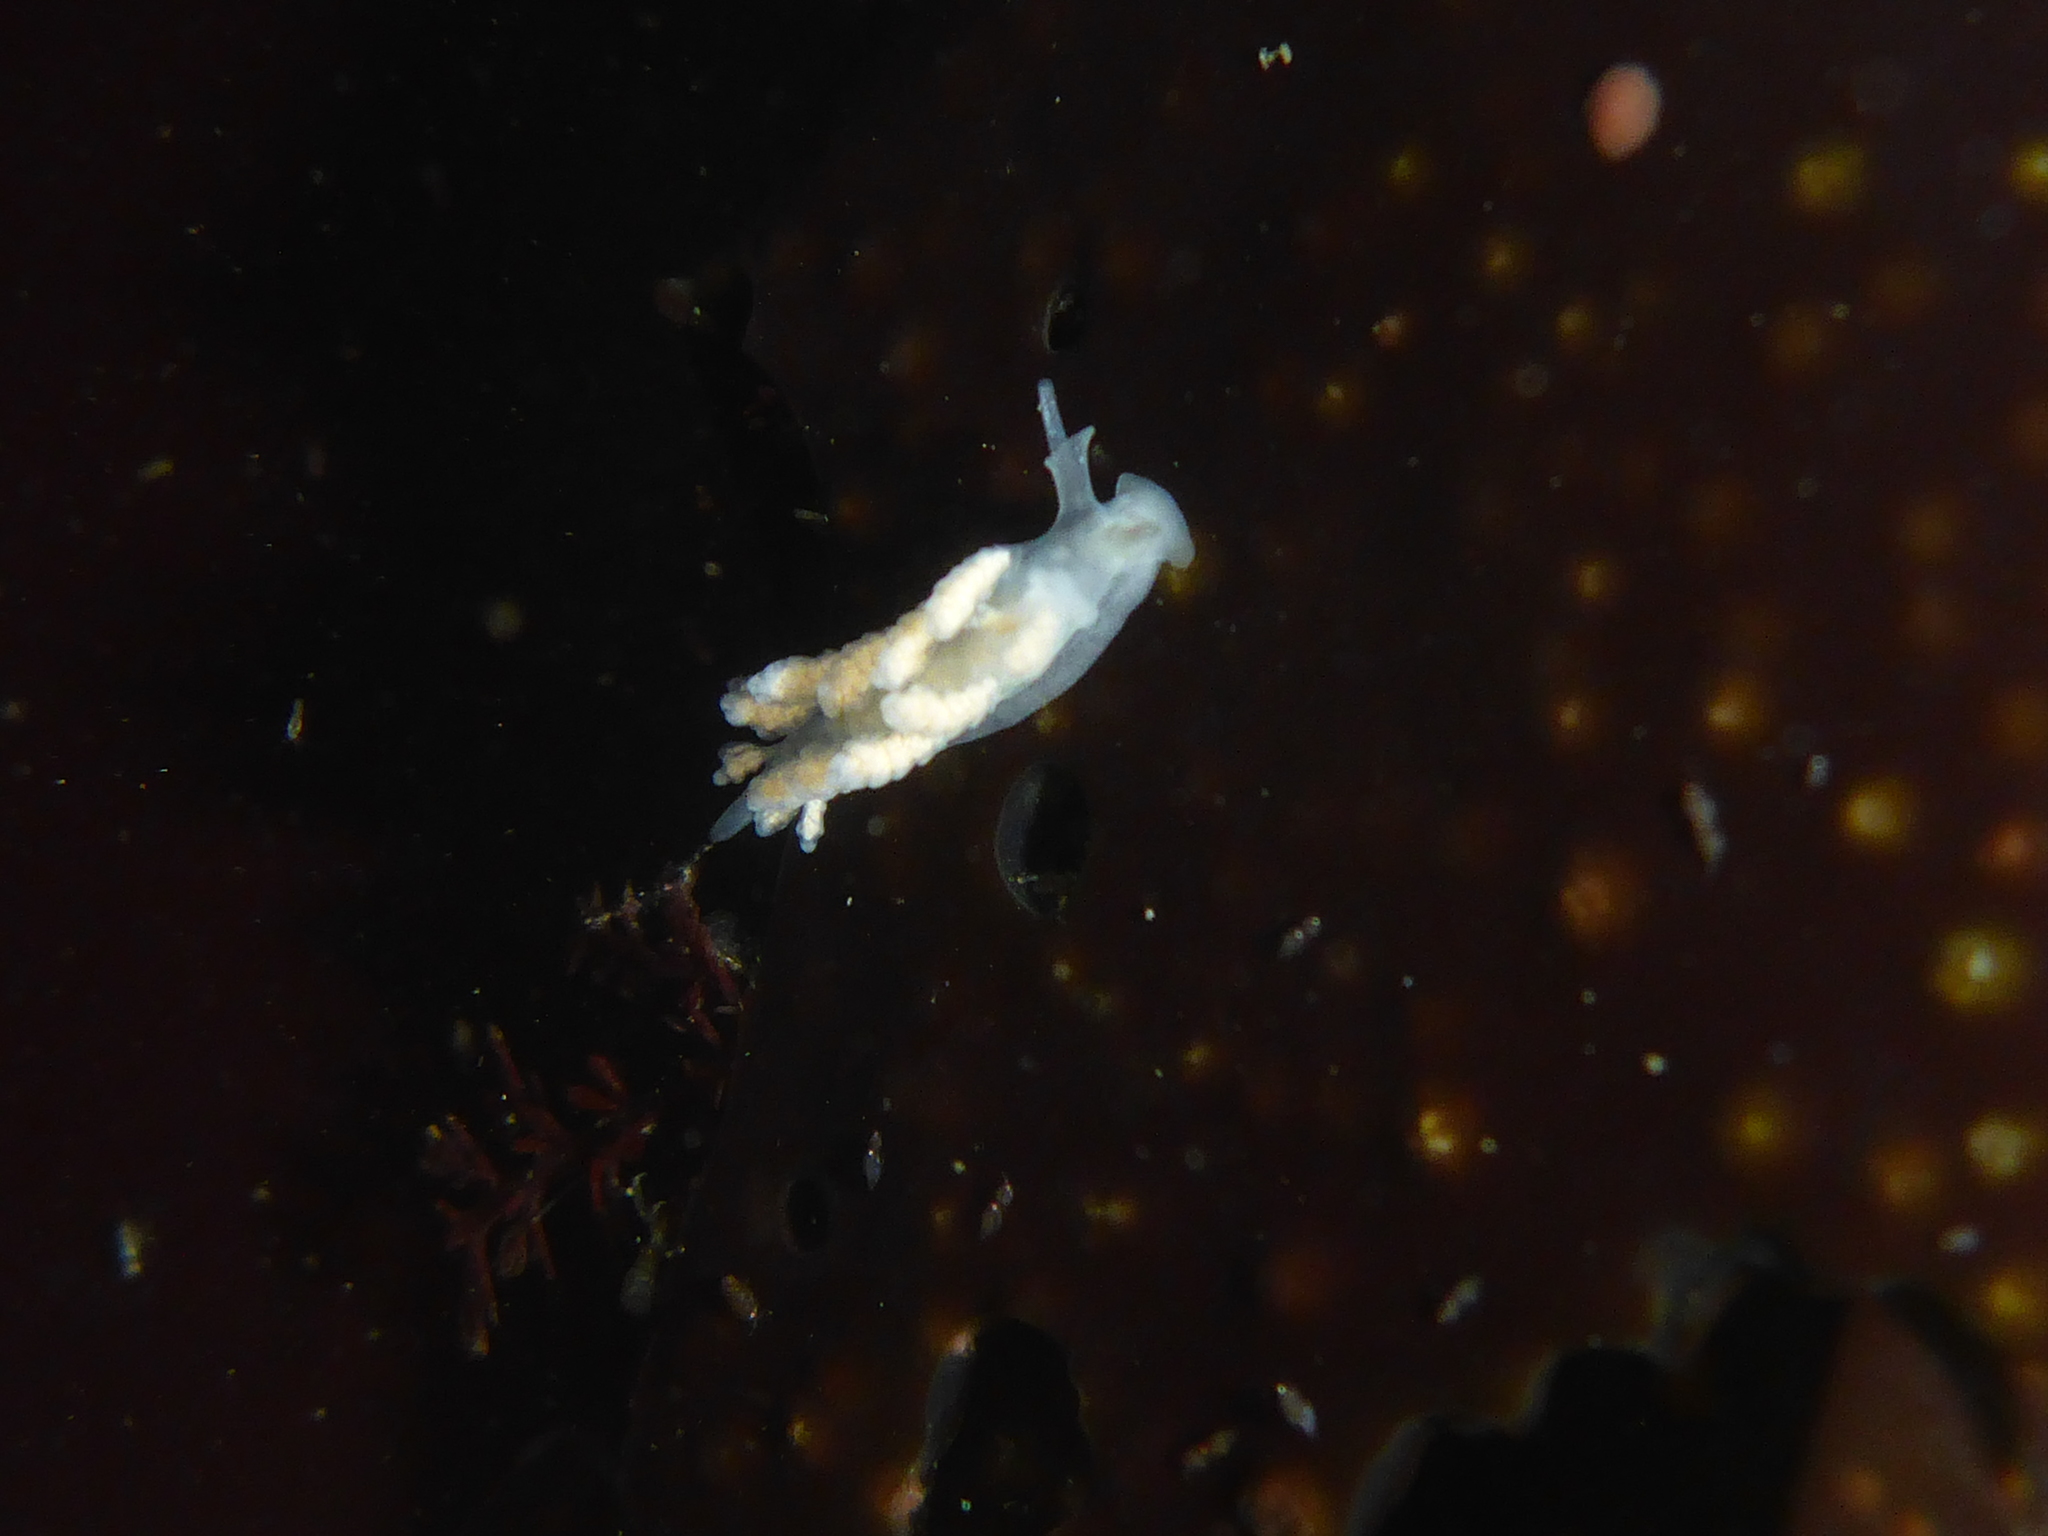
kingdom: Animalia
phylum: Mollusca
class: Gastropoda
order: Nudibranchia
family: Dotidae
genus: Doto
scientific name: Doto amyra
